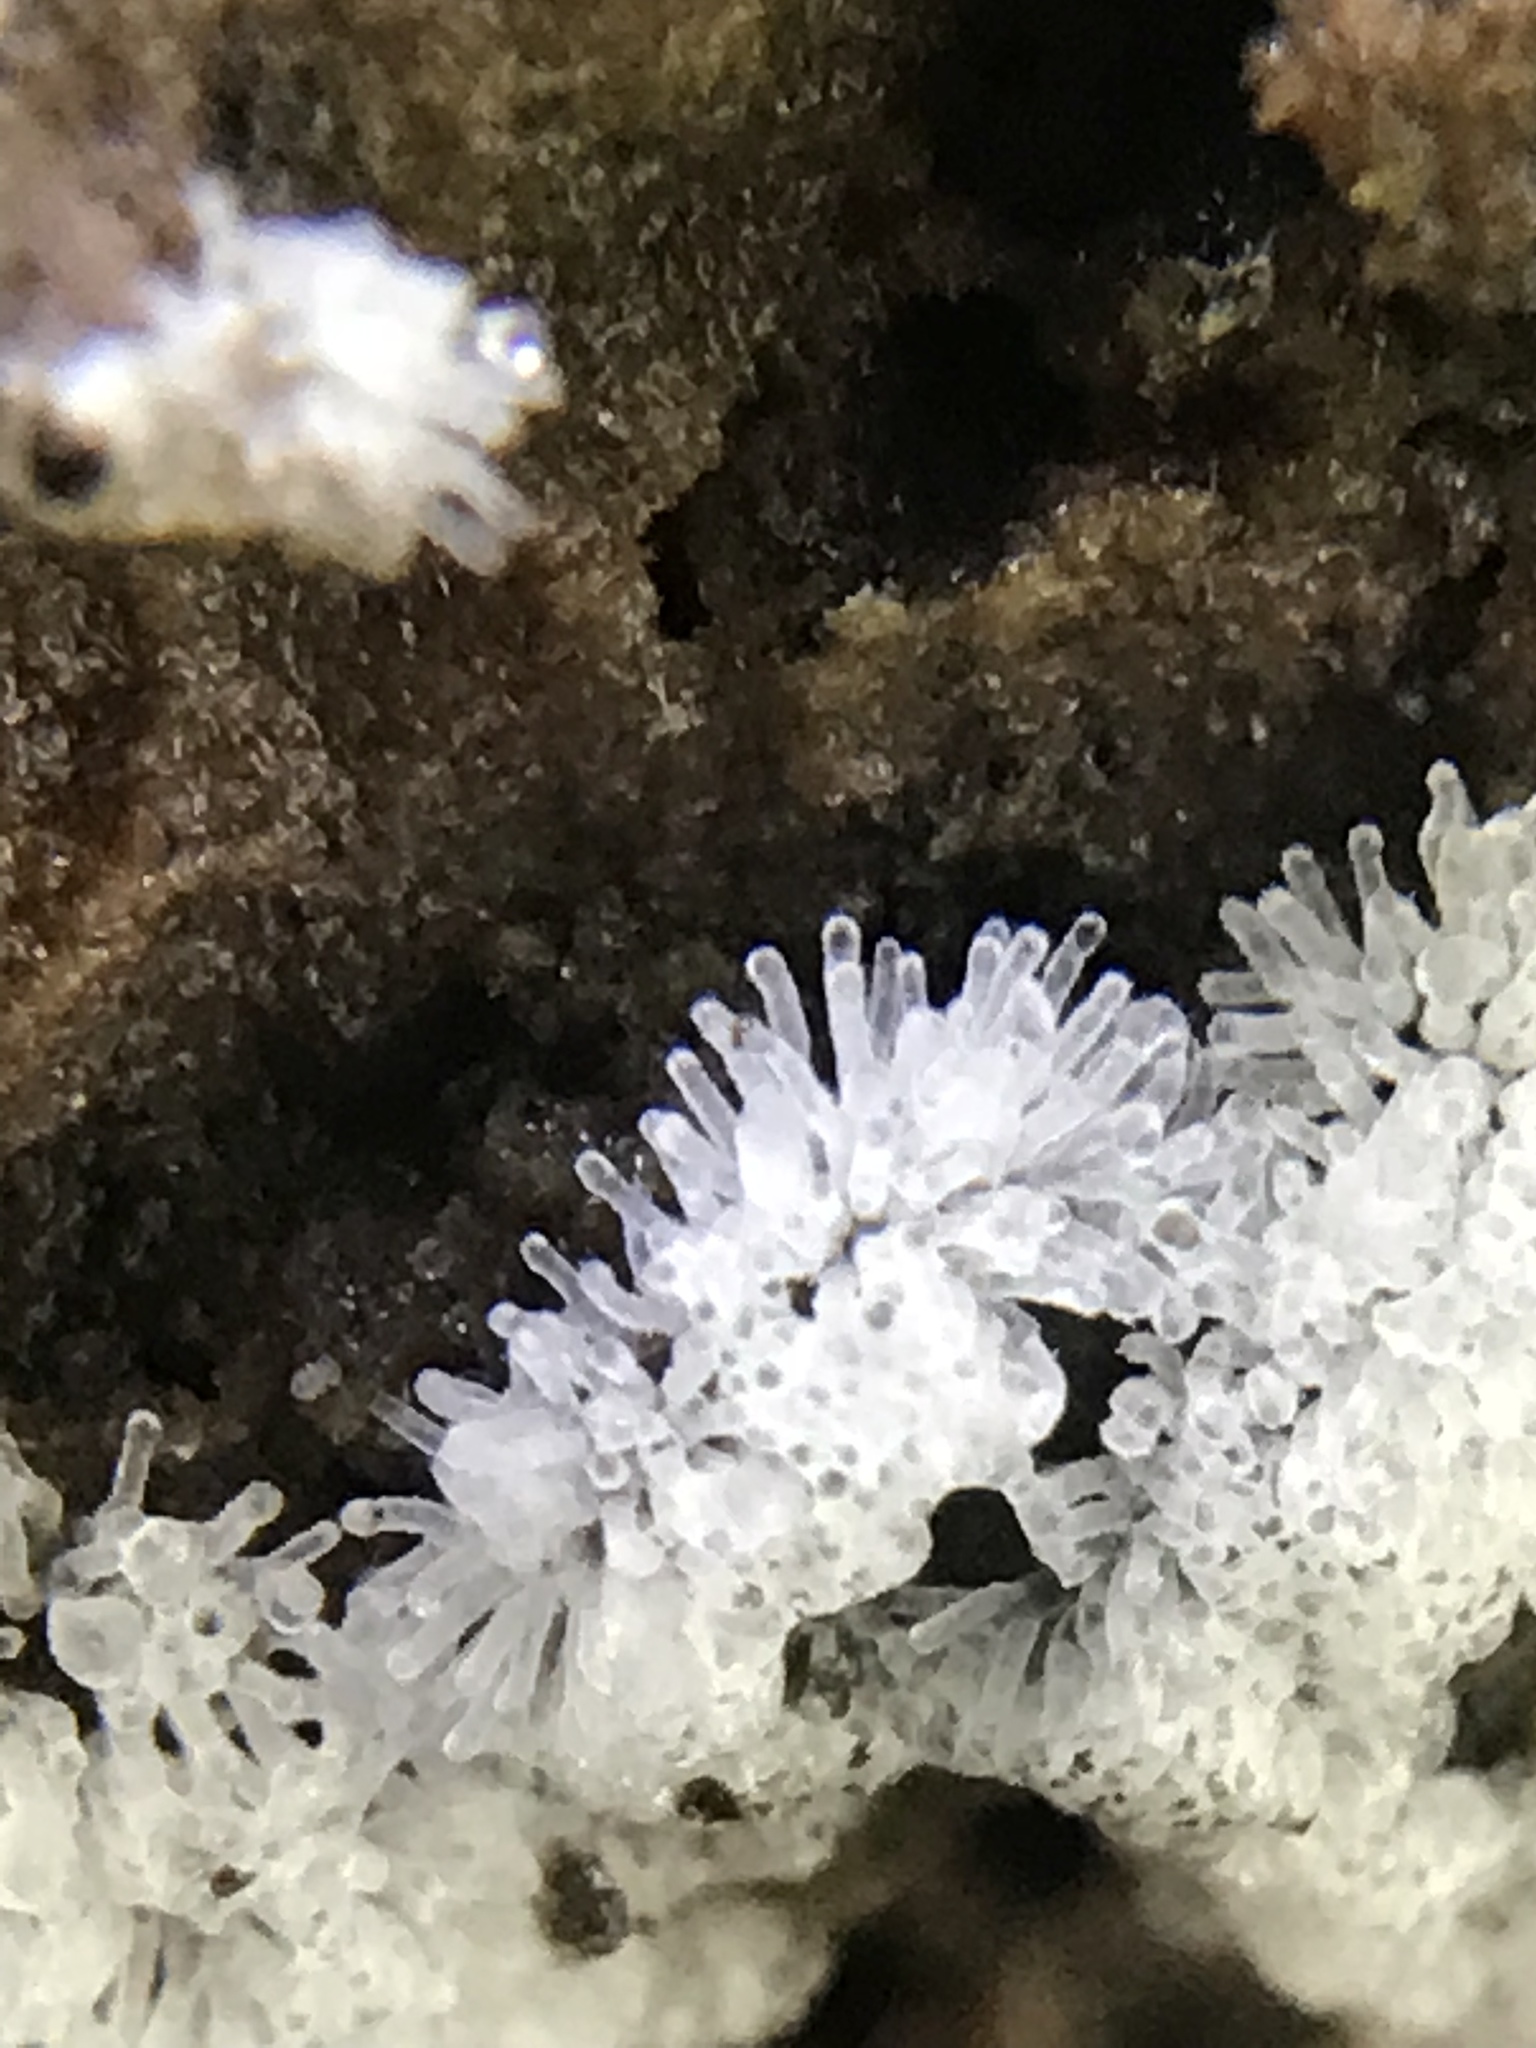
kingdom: Protozoa
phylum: Mycetozoa
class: Protosteliomycetes
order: Ceratiomyxales
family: Ceratiomyxaceae
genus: Ceratiomyxa
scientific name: Ceratiomyxa fruticulosa
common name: Honeycomb coral slime mold
